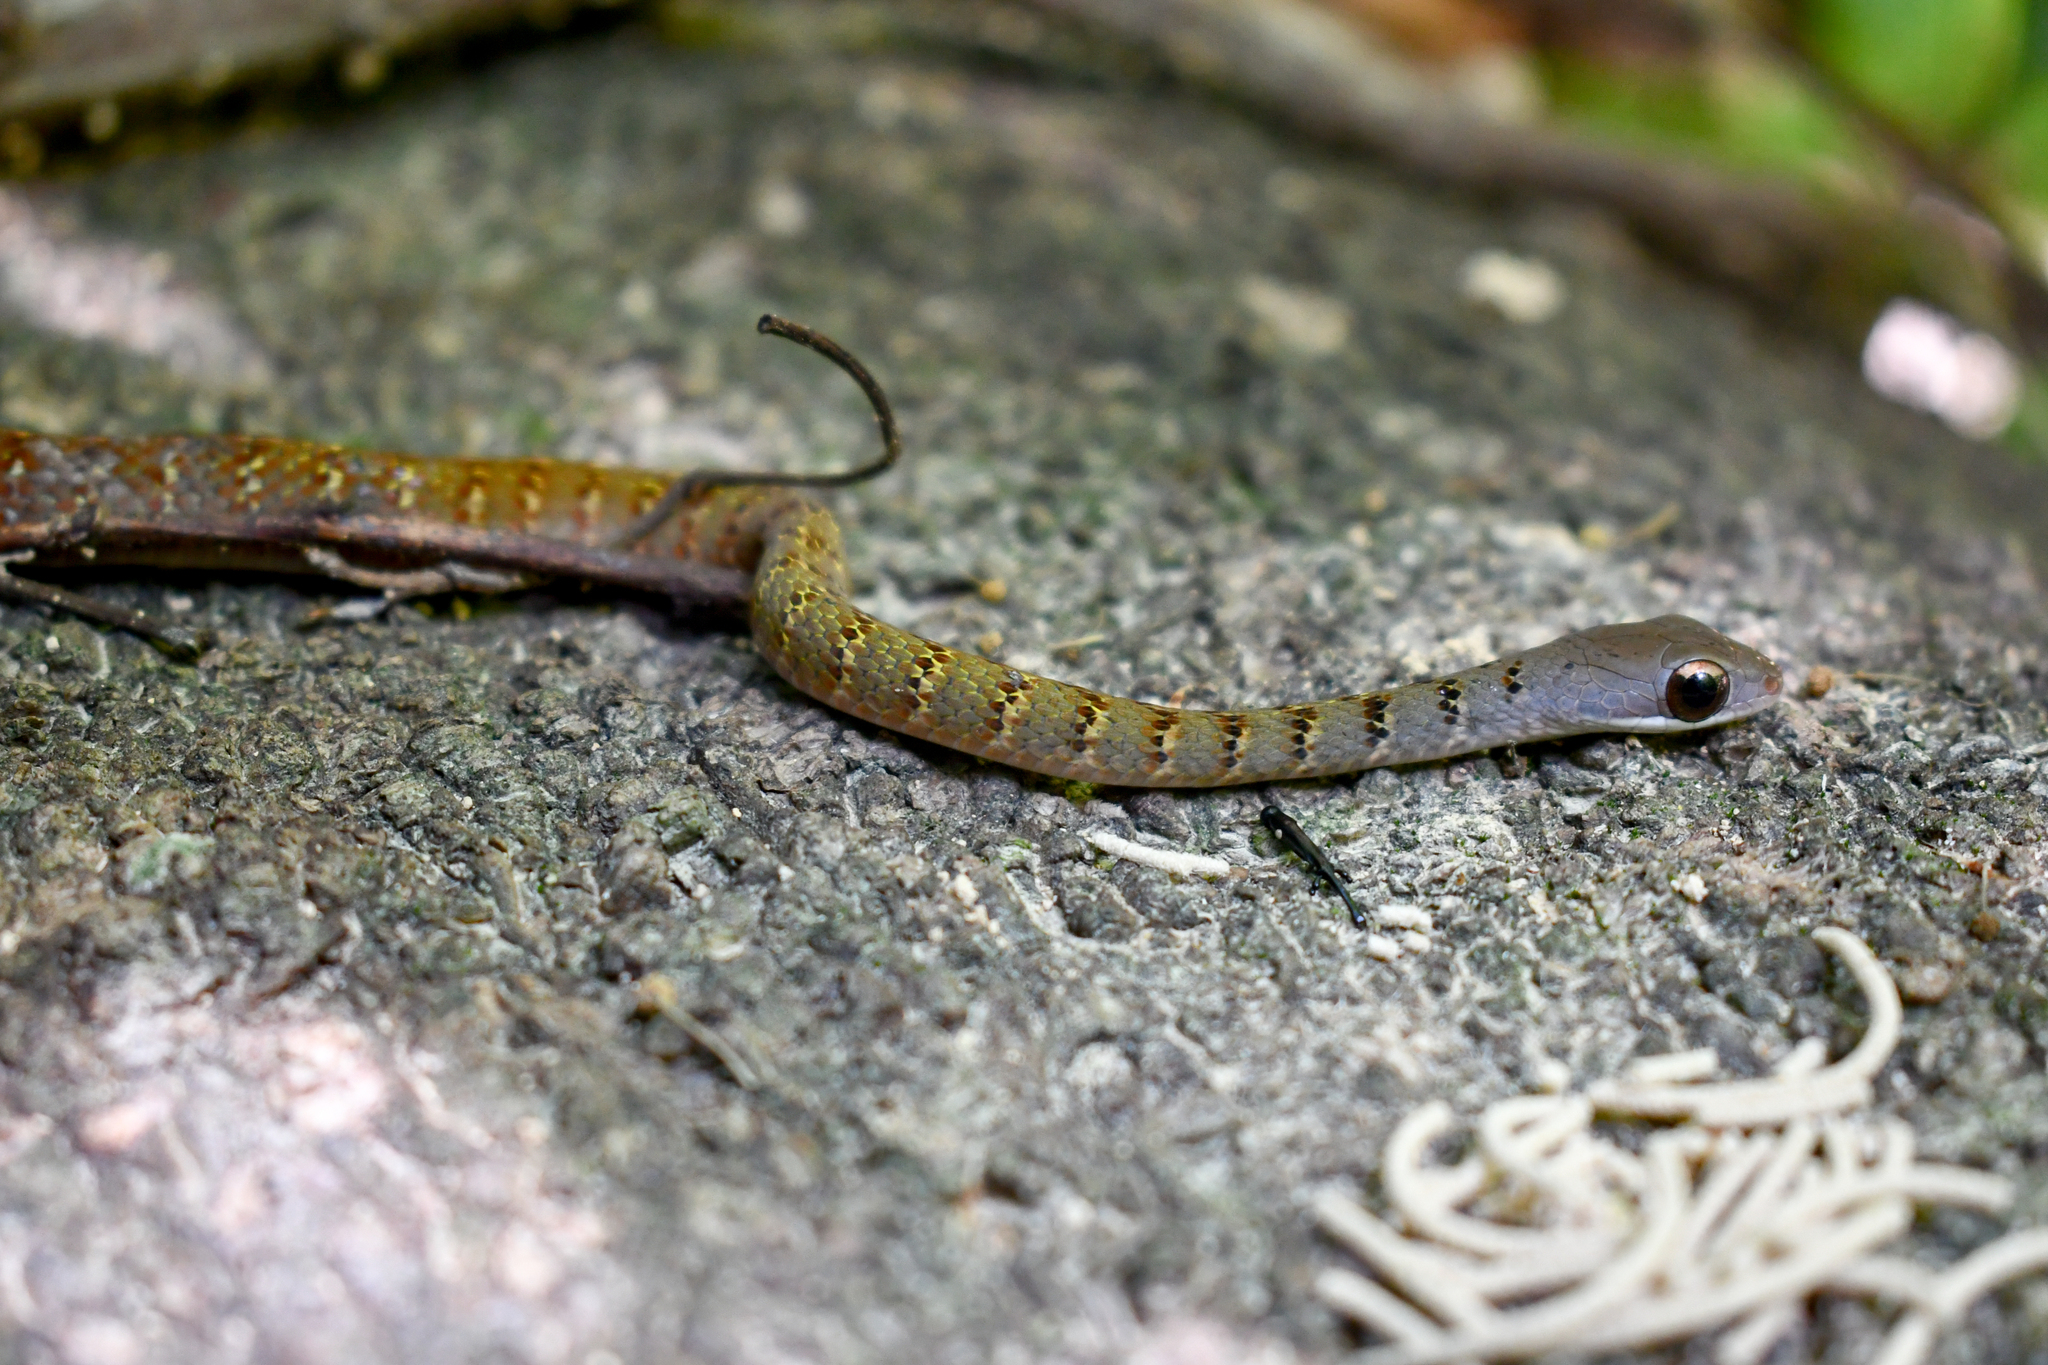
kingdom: Animalia
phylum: Chordata
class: Squamata
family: Colubridae
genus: Dendrophidion
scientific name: Dendrophidion dendrophis
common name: Olive forest racer
